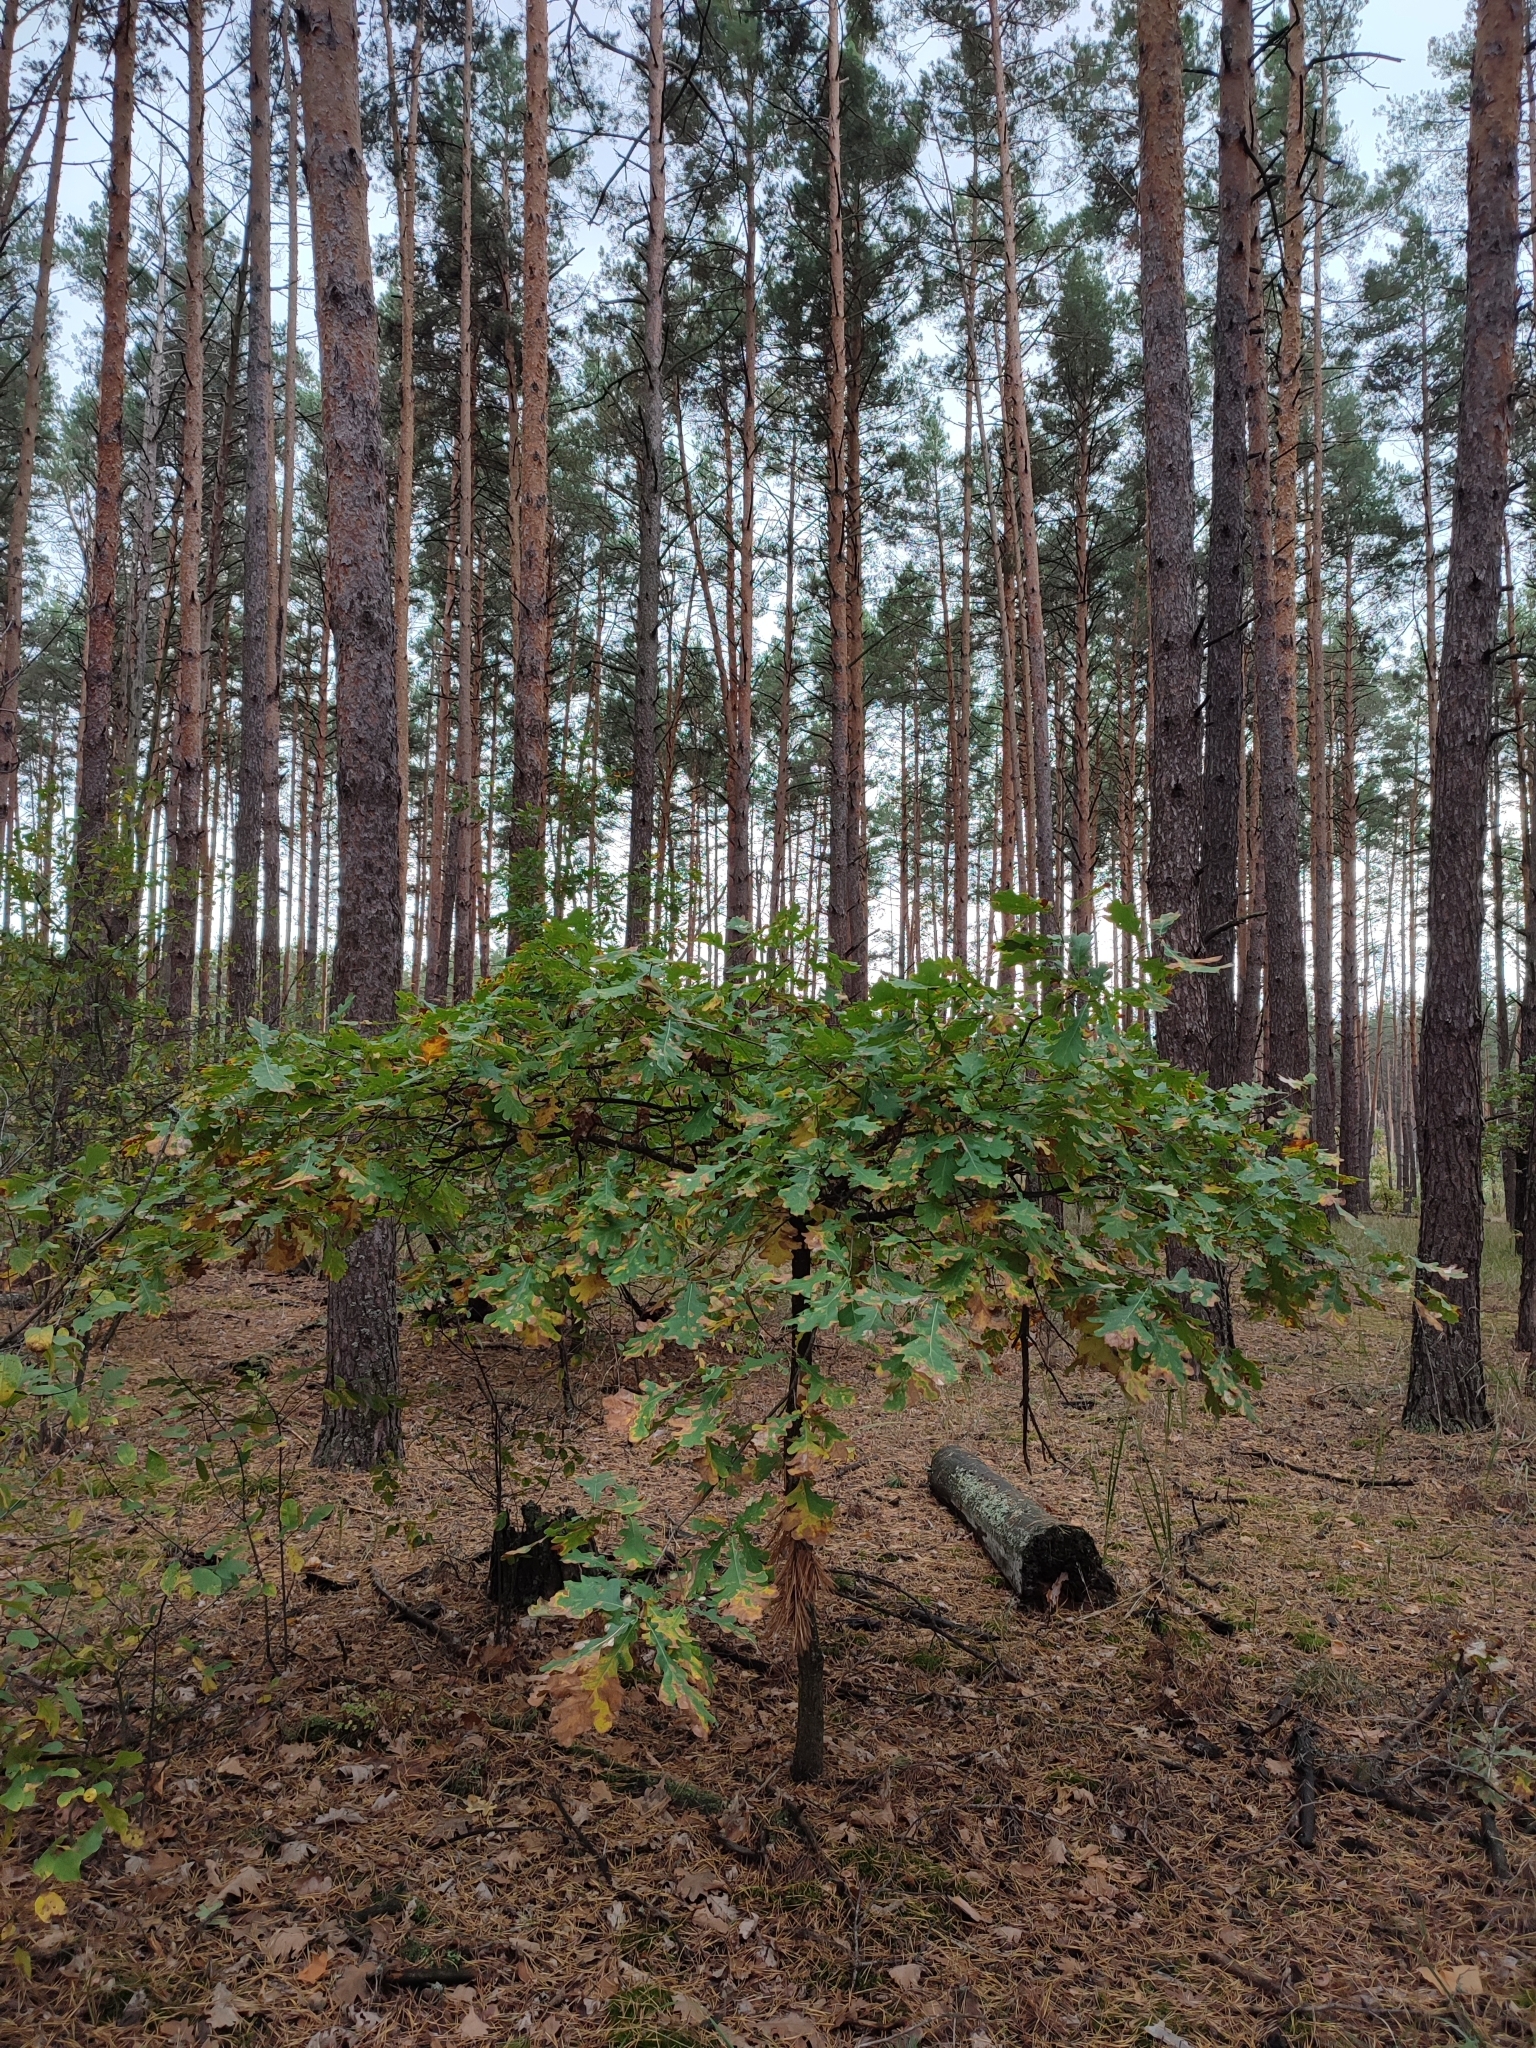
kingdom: Plantae
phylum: Tracheophyta
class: Magnoliopsida
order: Fagales
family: Fagaceae
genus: Quercus
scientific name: Quercus robur
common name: Pedunculate oak
